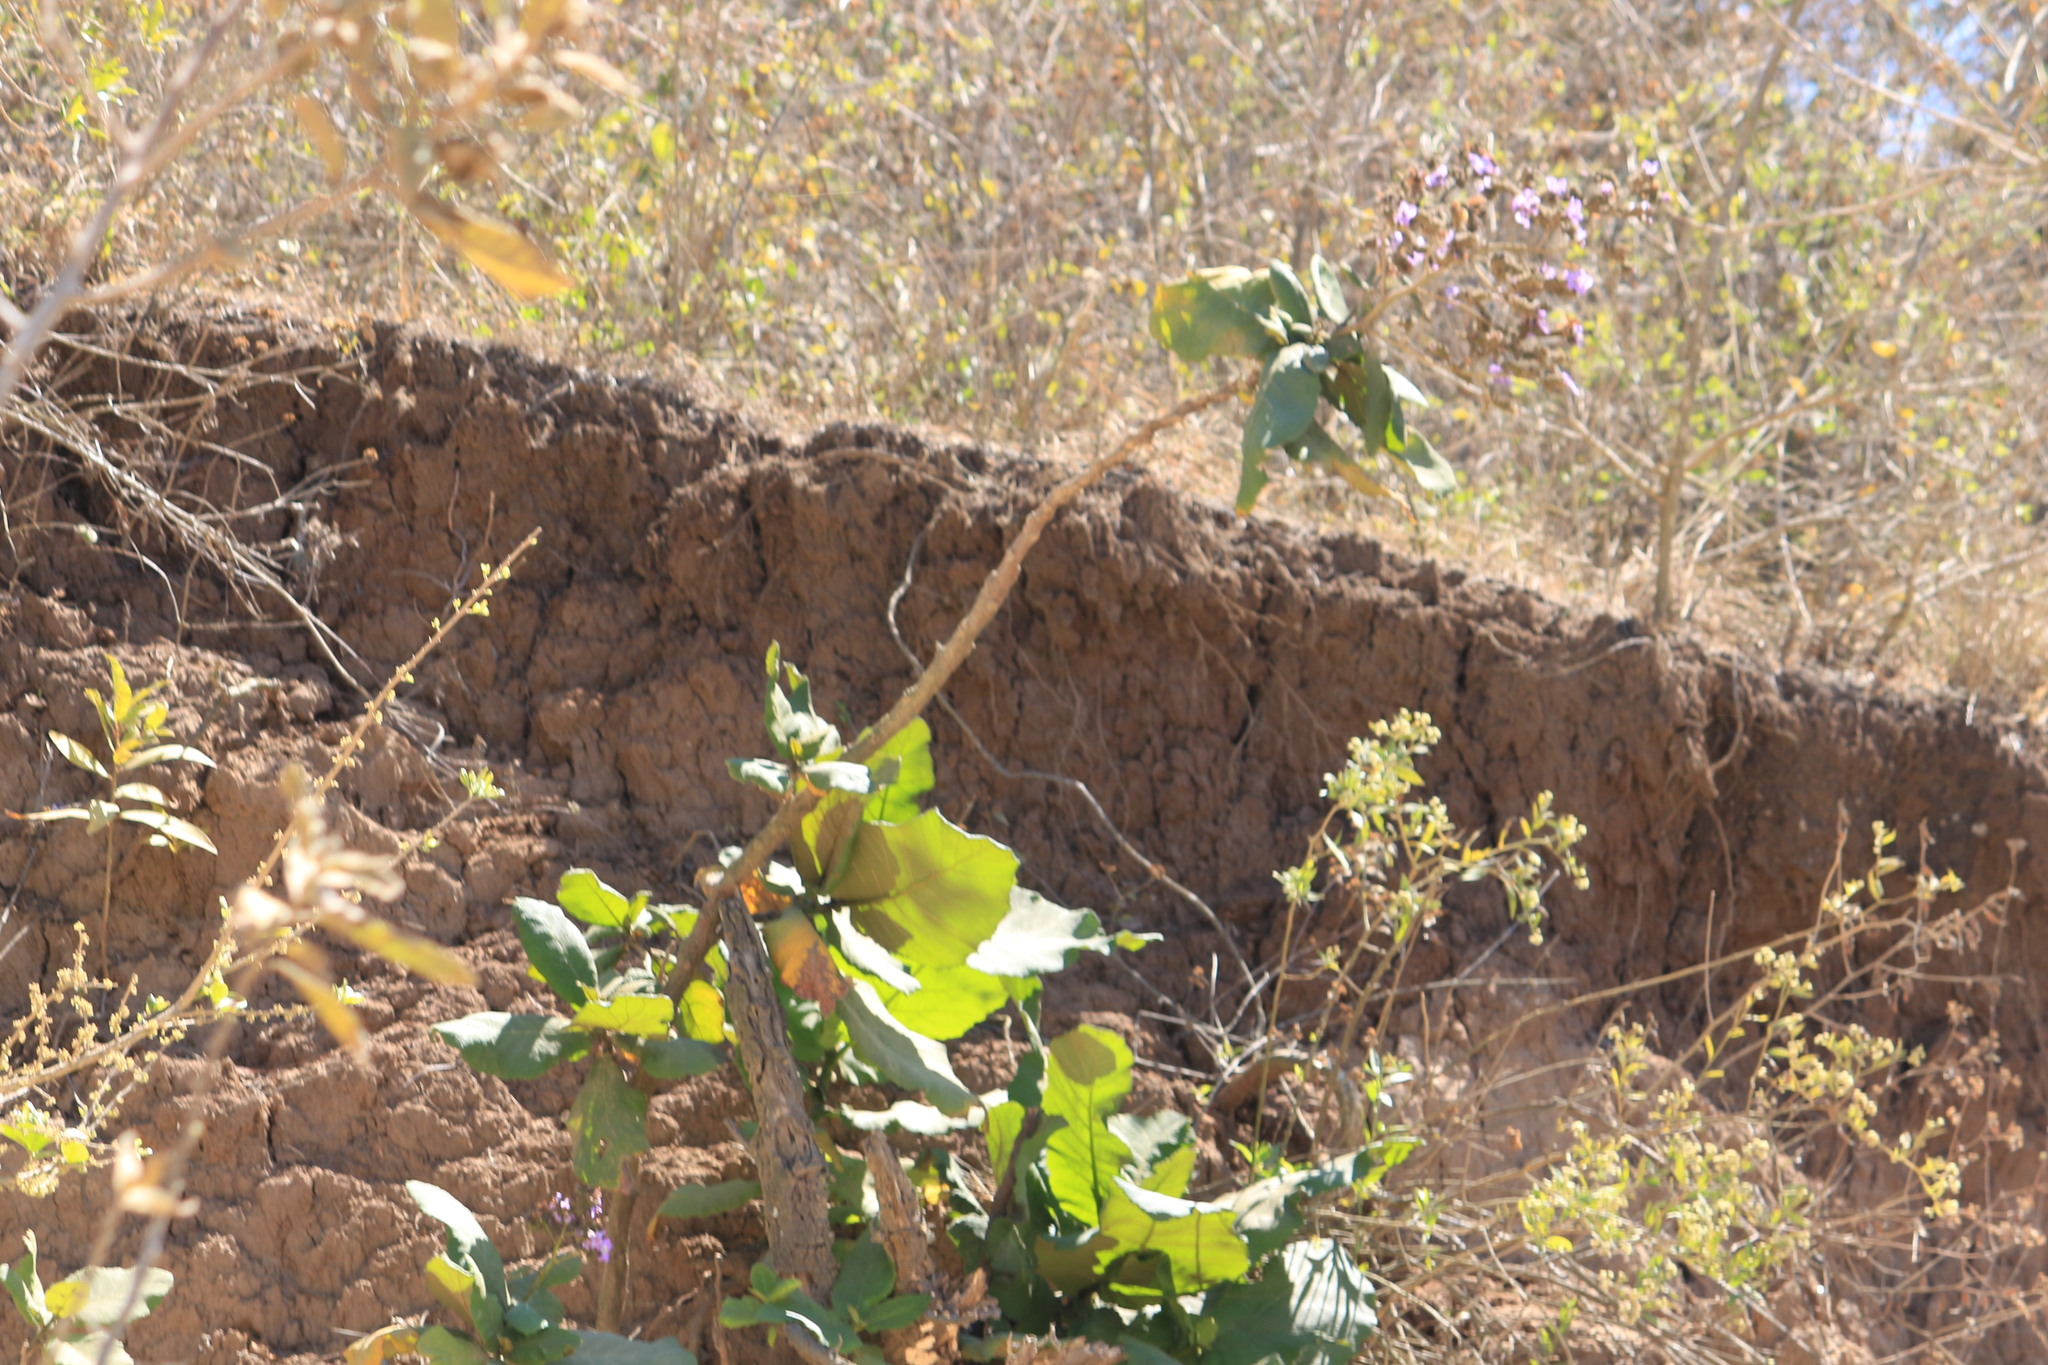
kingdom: Plantae
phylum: Tracheophyta
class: Magnoliopsida
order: Boraginales
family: Namaceae
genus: Wigandia
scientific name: Wigandia urens
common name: Caracus wigandia
